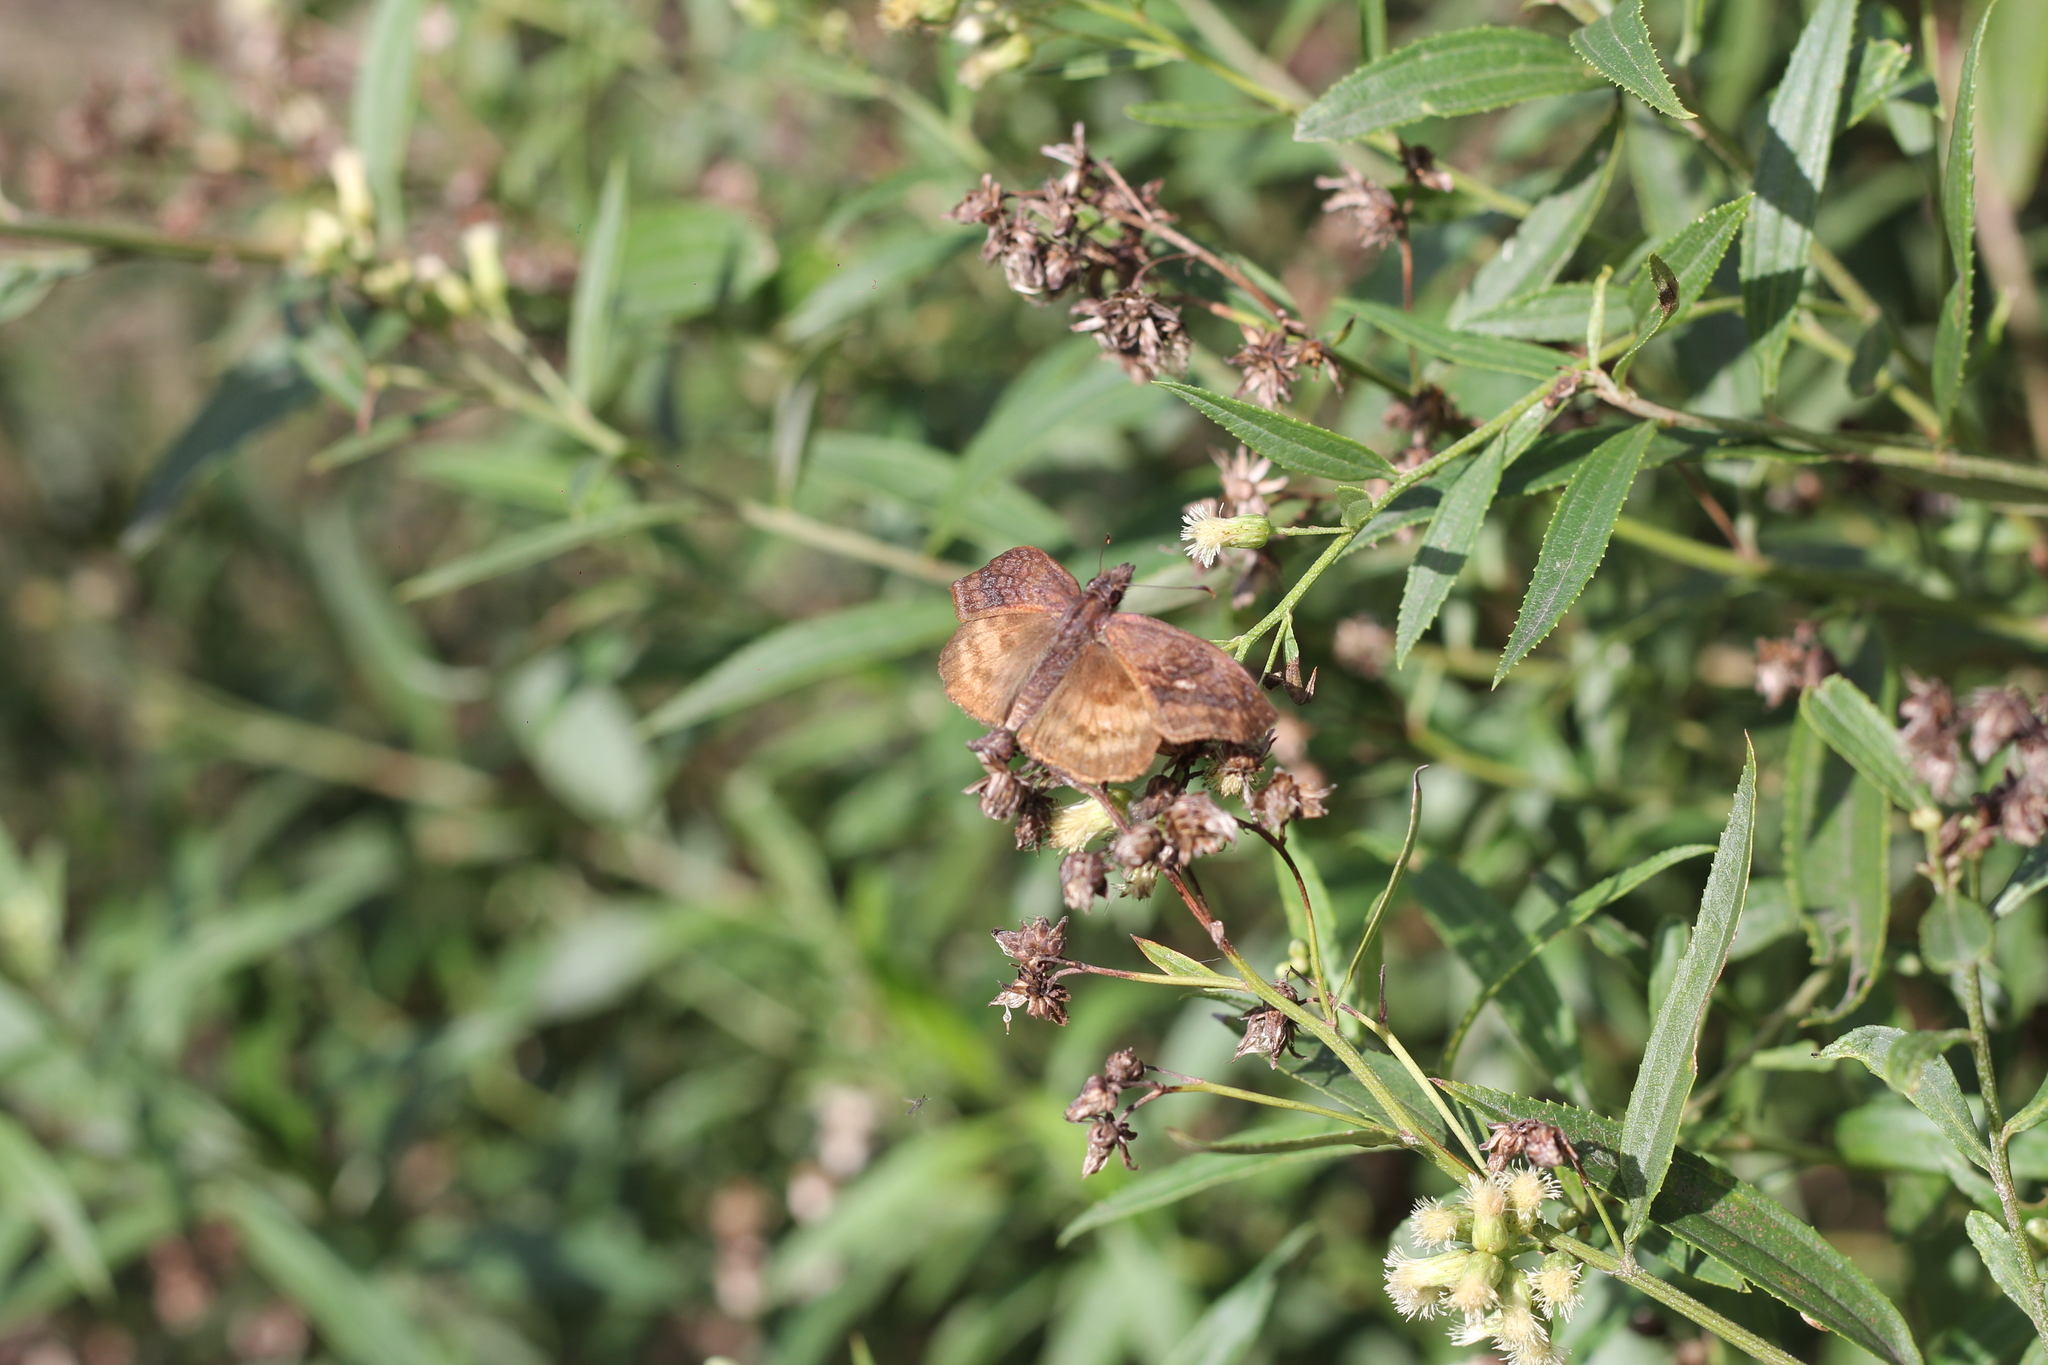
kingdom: Animalia
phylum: Arthropoda
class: Insecta
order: Lepidoptera
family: Hesperiidae
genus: Theagenes
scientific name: Theagenes dichrous
